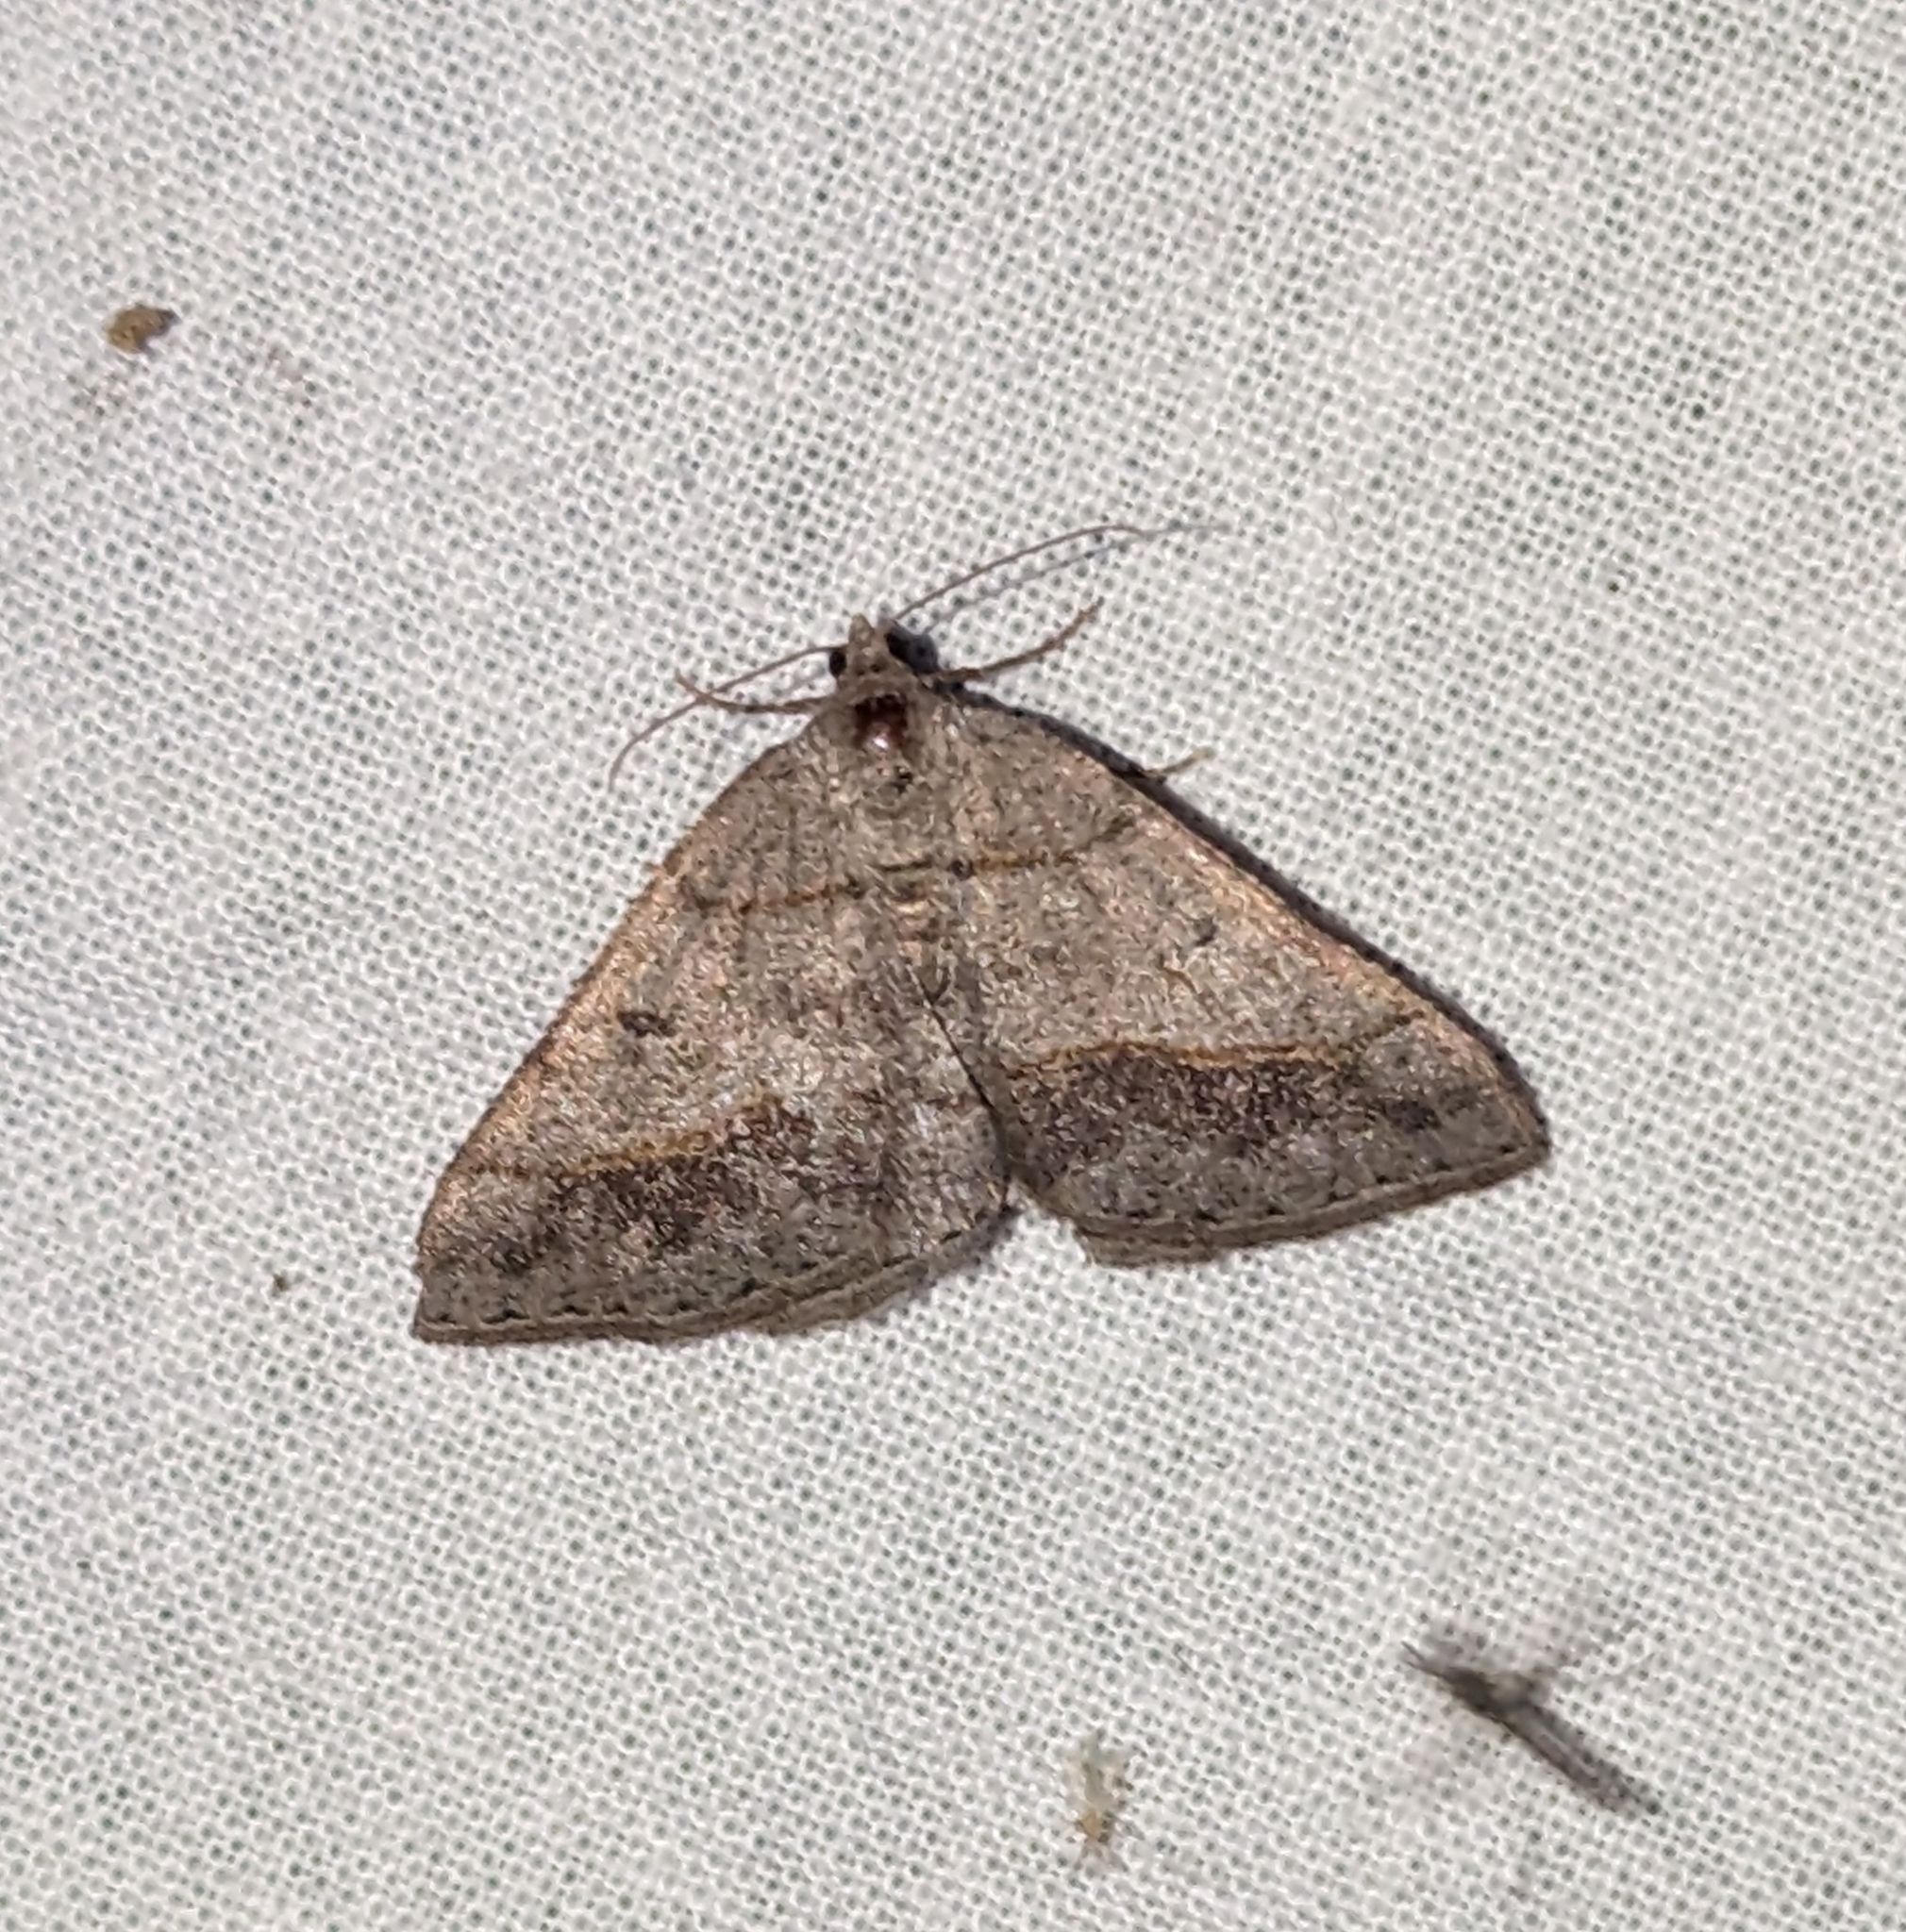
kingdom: Animalia
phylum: Arthropoda
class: Insecta
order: Lepidoptera
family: Geometridae
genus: Digrammia
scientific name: Digrammia neptaria
